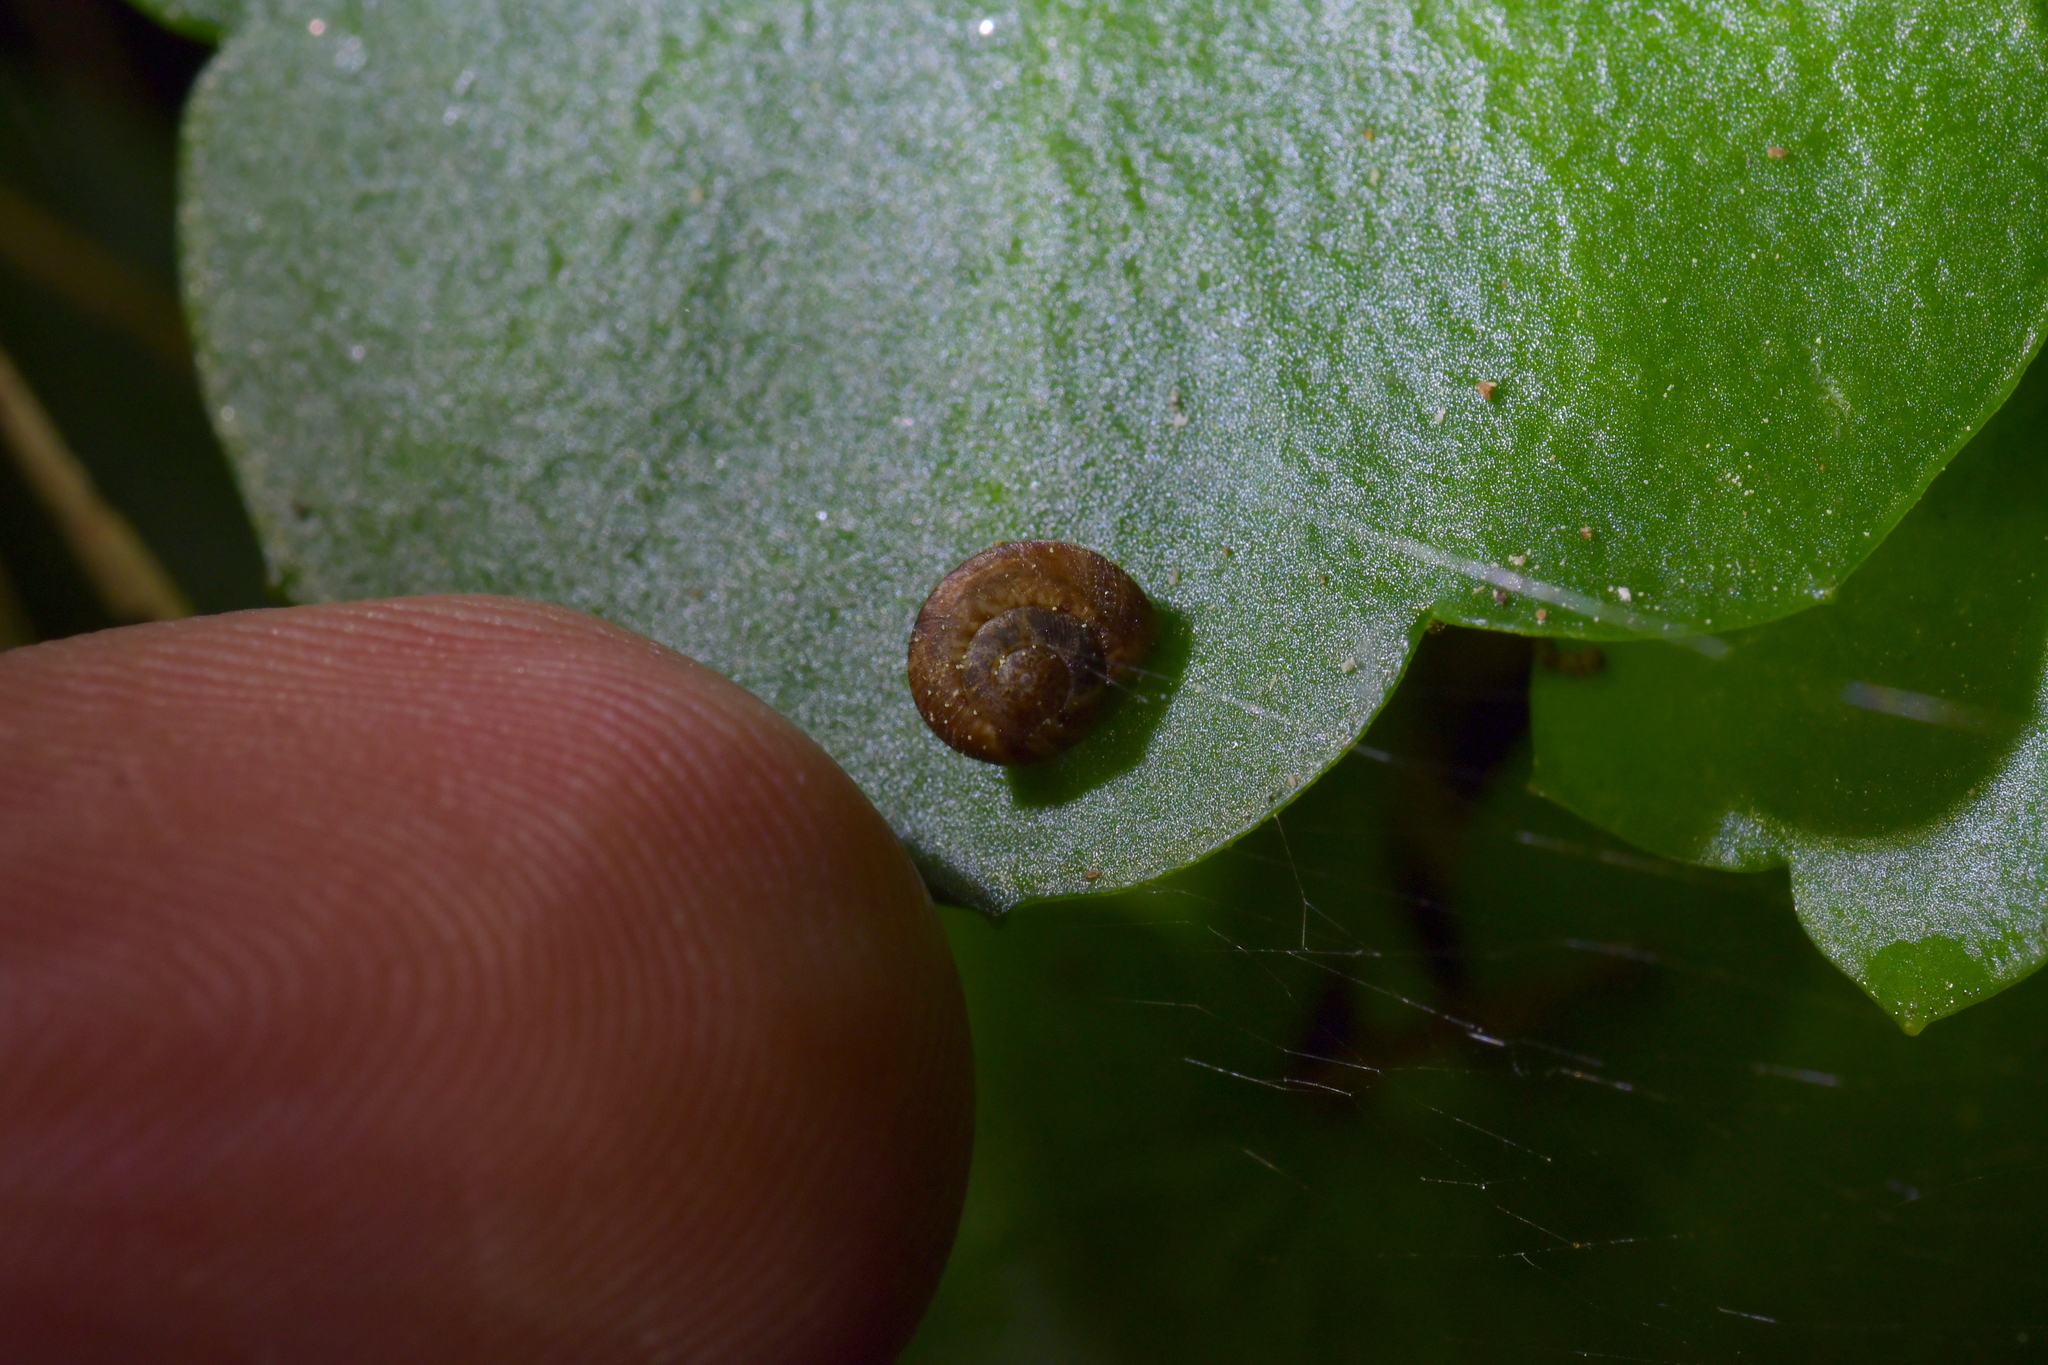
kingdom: Animalia
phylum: Mollusca
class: Gastropoda
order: Stylommatophora
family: Charopidae
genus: Thalassohelix
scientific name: Thalassohelix zelandiae
